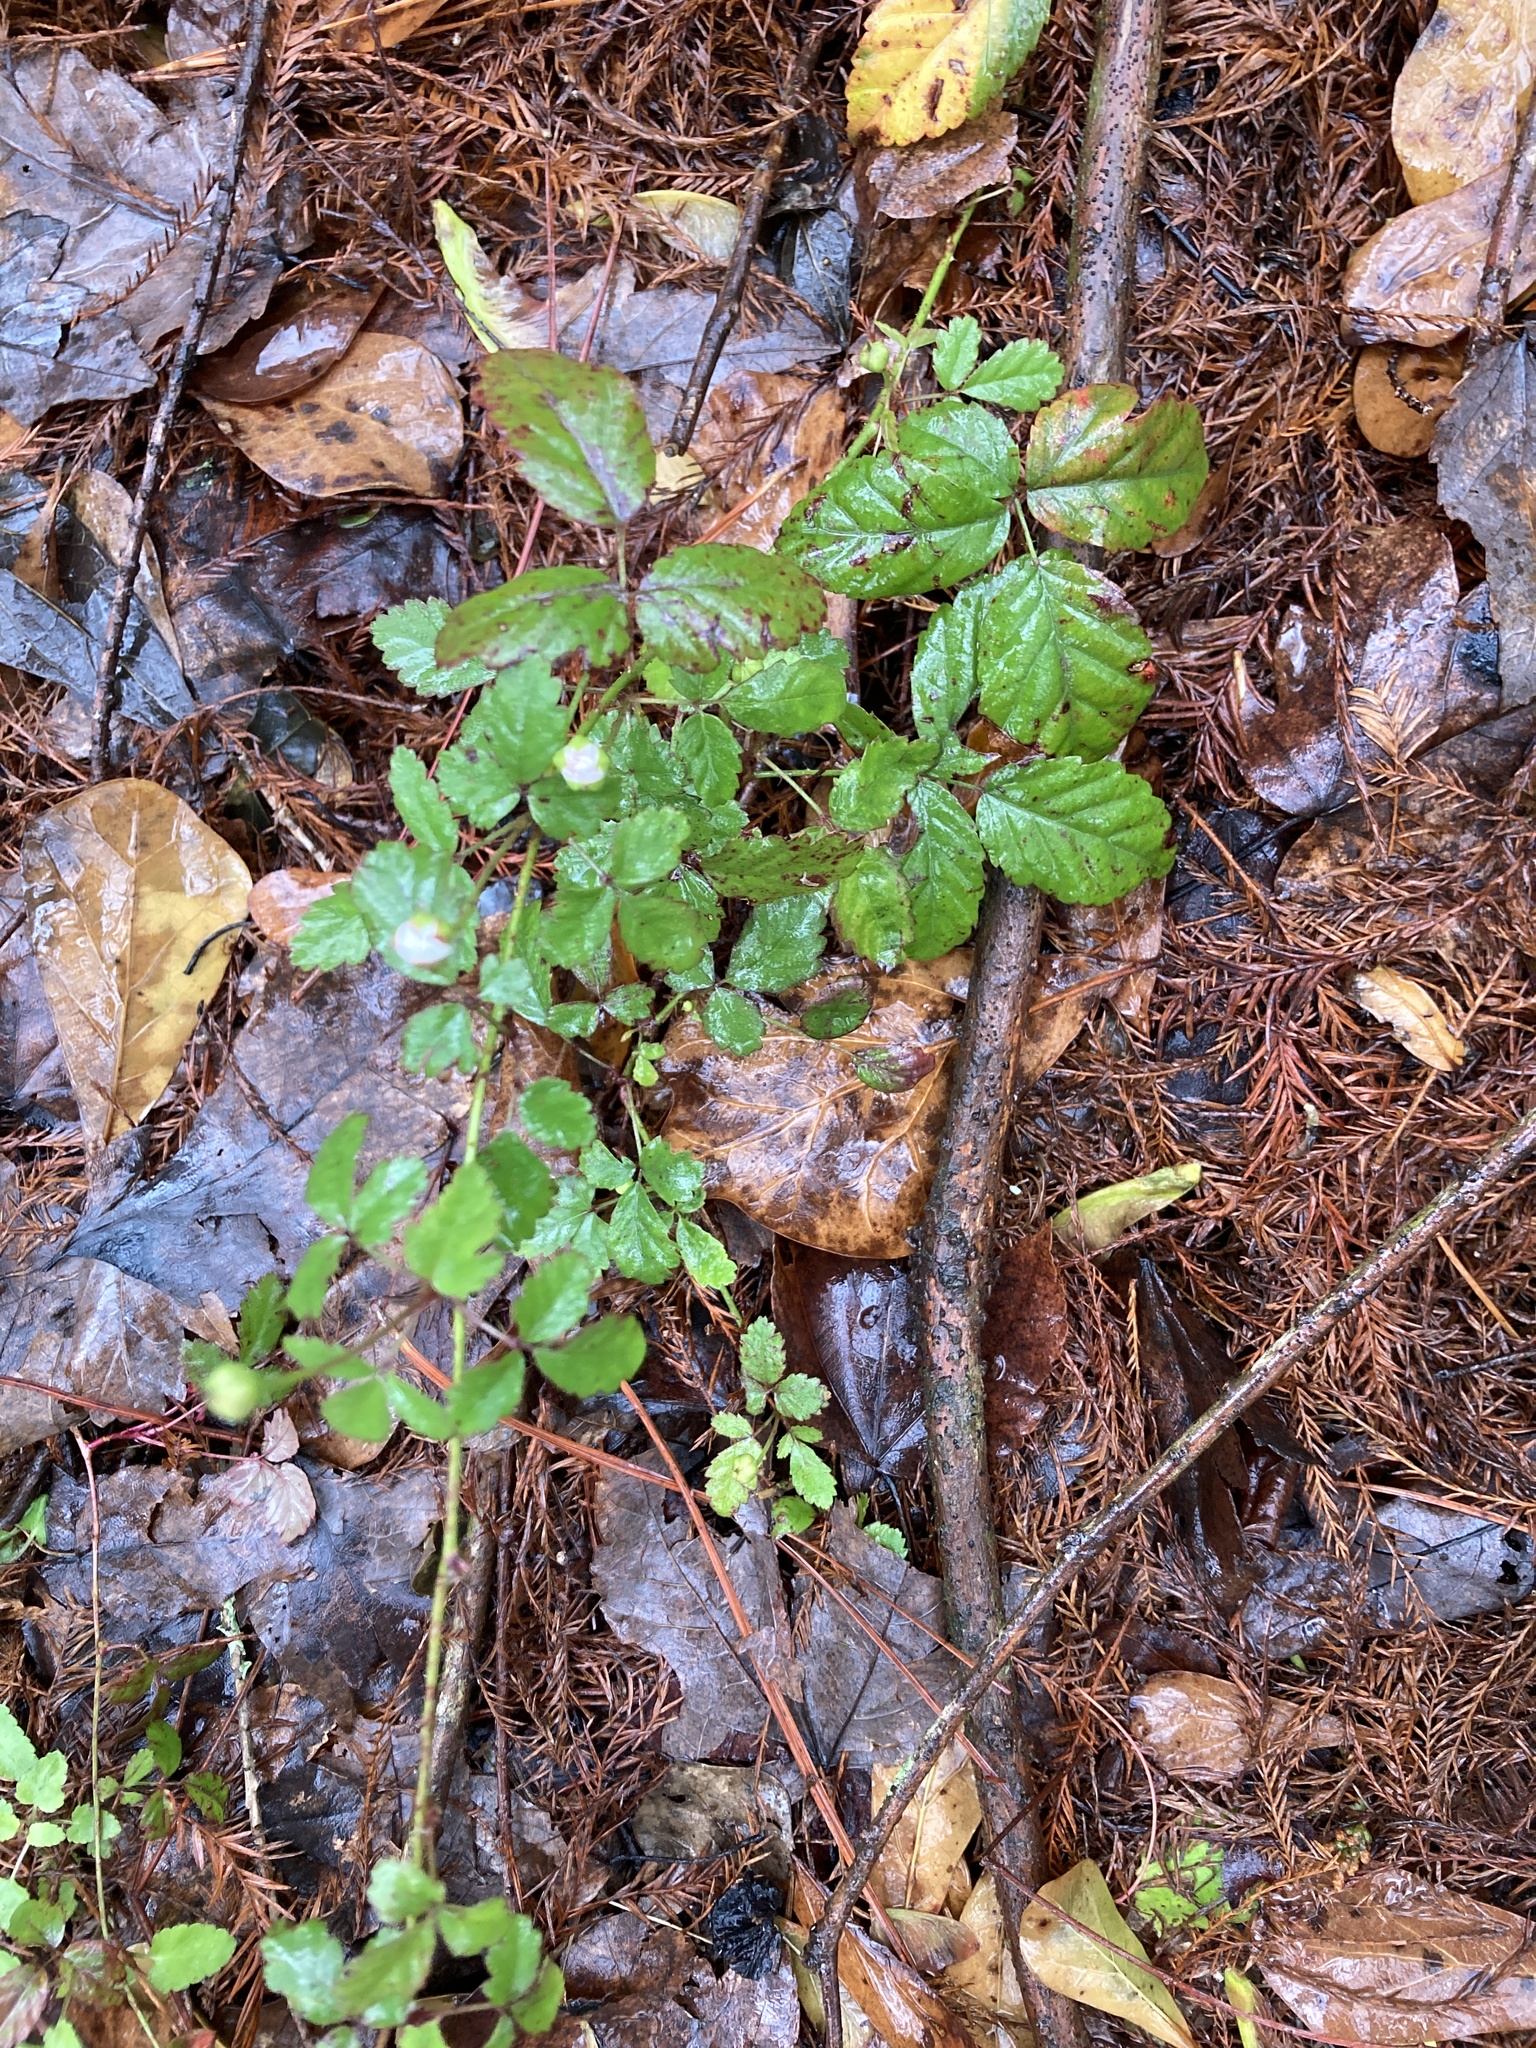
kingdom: Plantae
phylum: Tracheophyta
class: Magnoliopsida
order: Rosales
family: Rosaceae
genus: Rubus
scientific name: Rubus trivialis
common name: Southern dewberry
